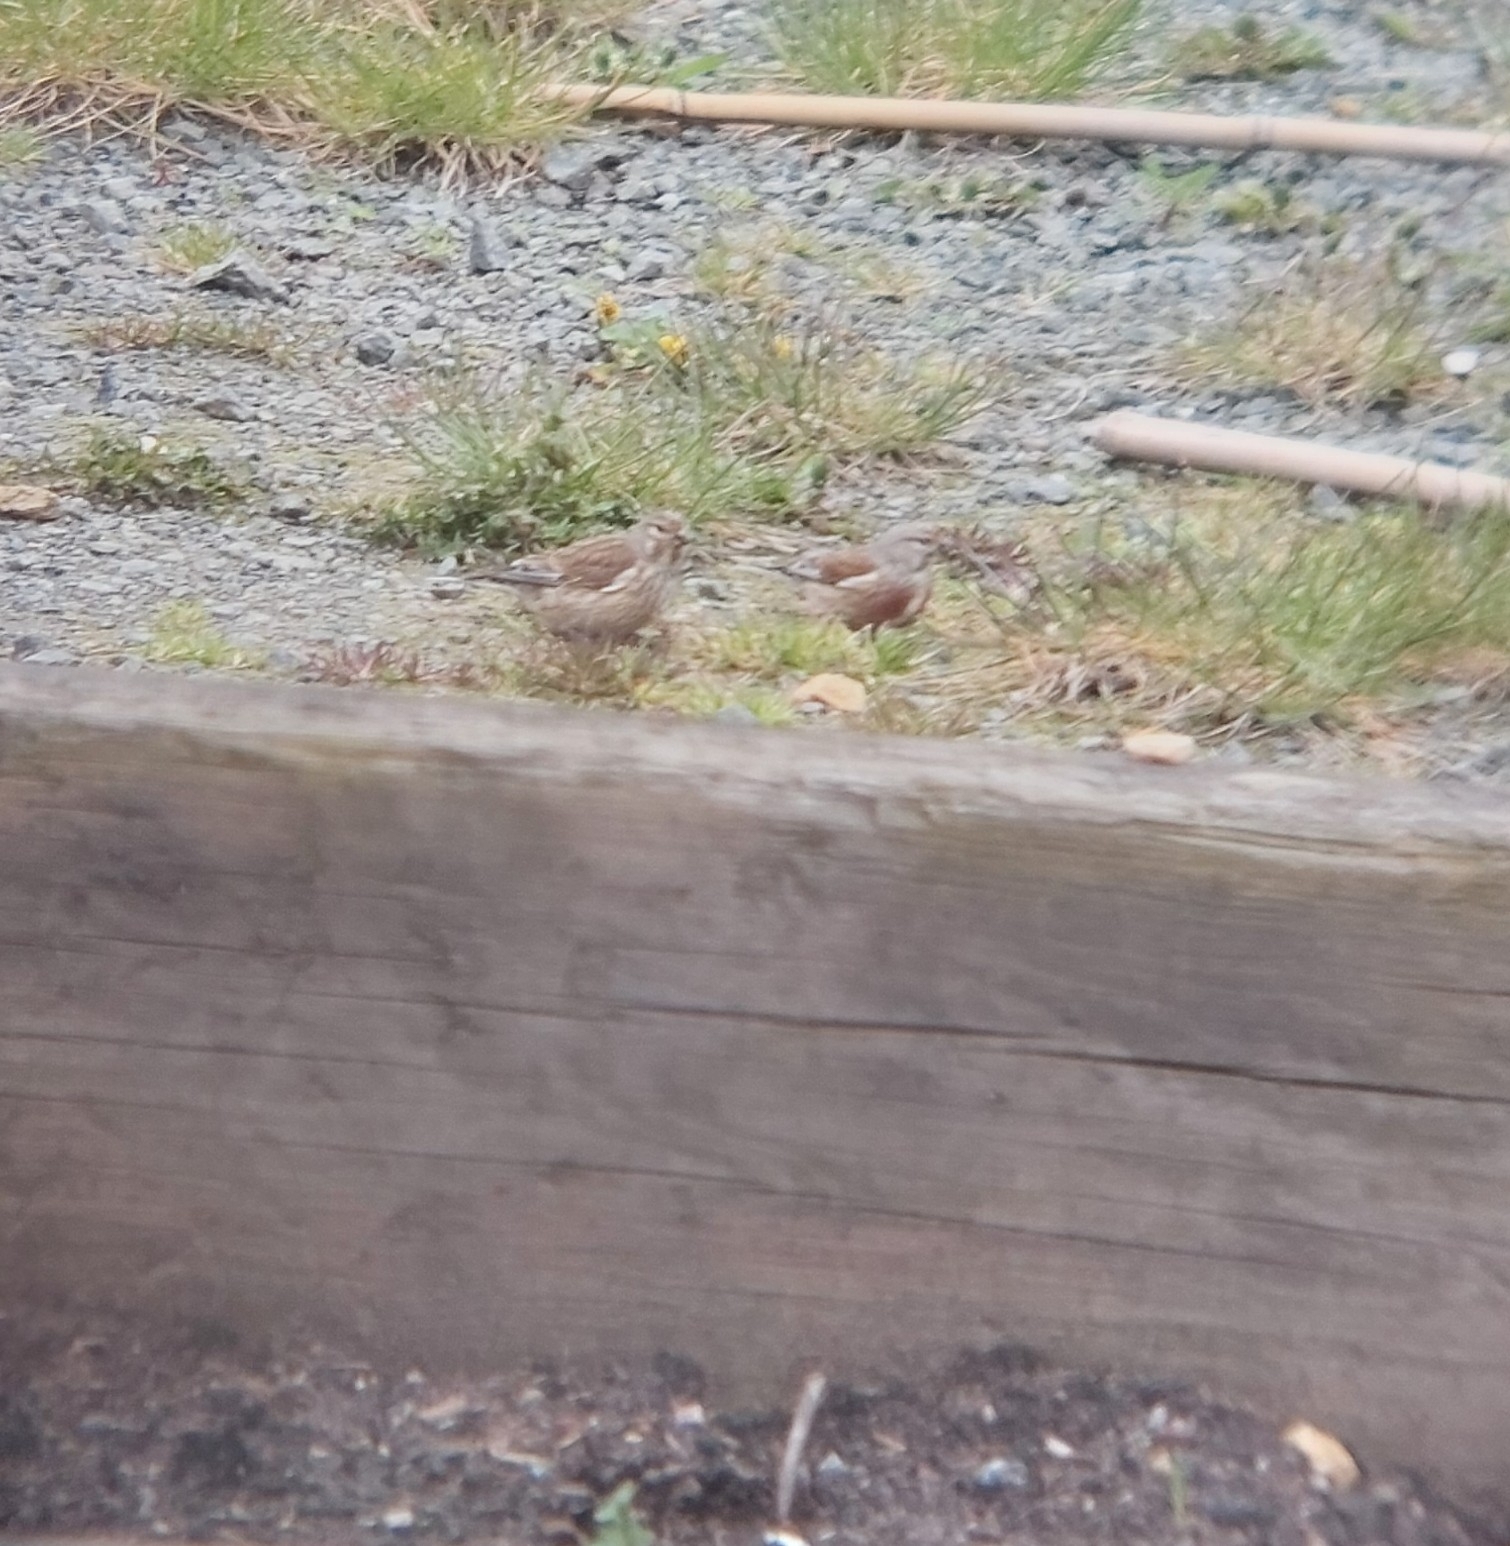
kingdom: Animalia
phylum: Chordata
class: Aves
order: Passeriformes
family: Fringillidae
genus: Linaria
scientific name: Linaria cannabina
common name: Common linnet
